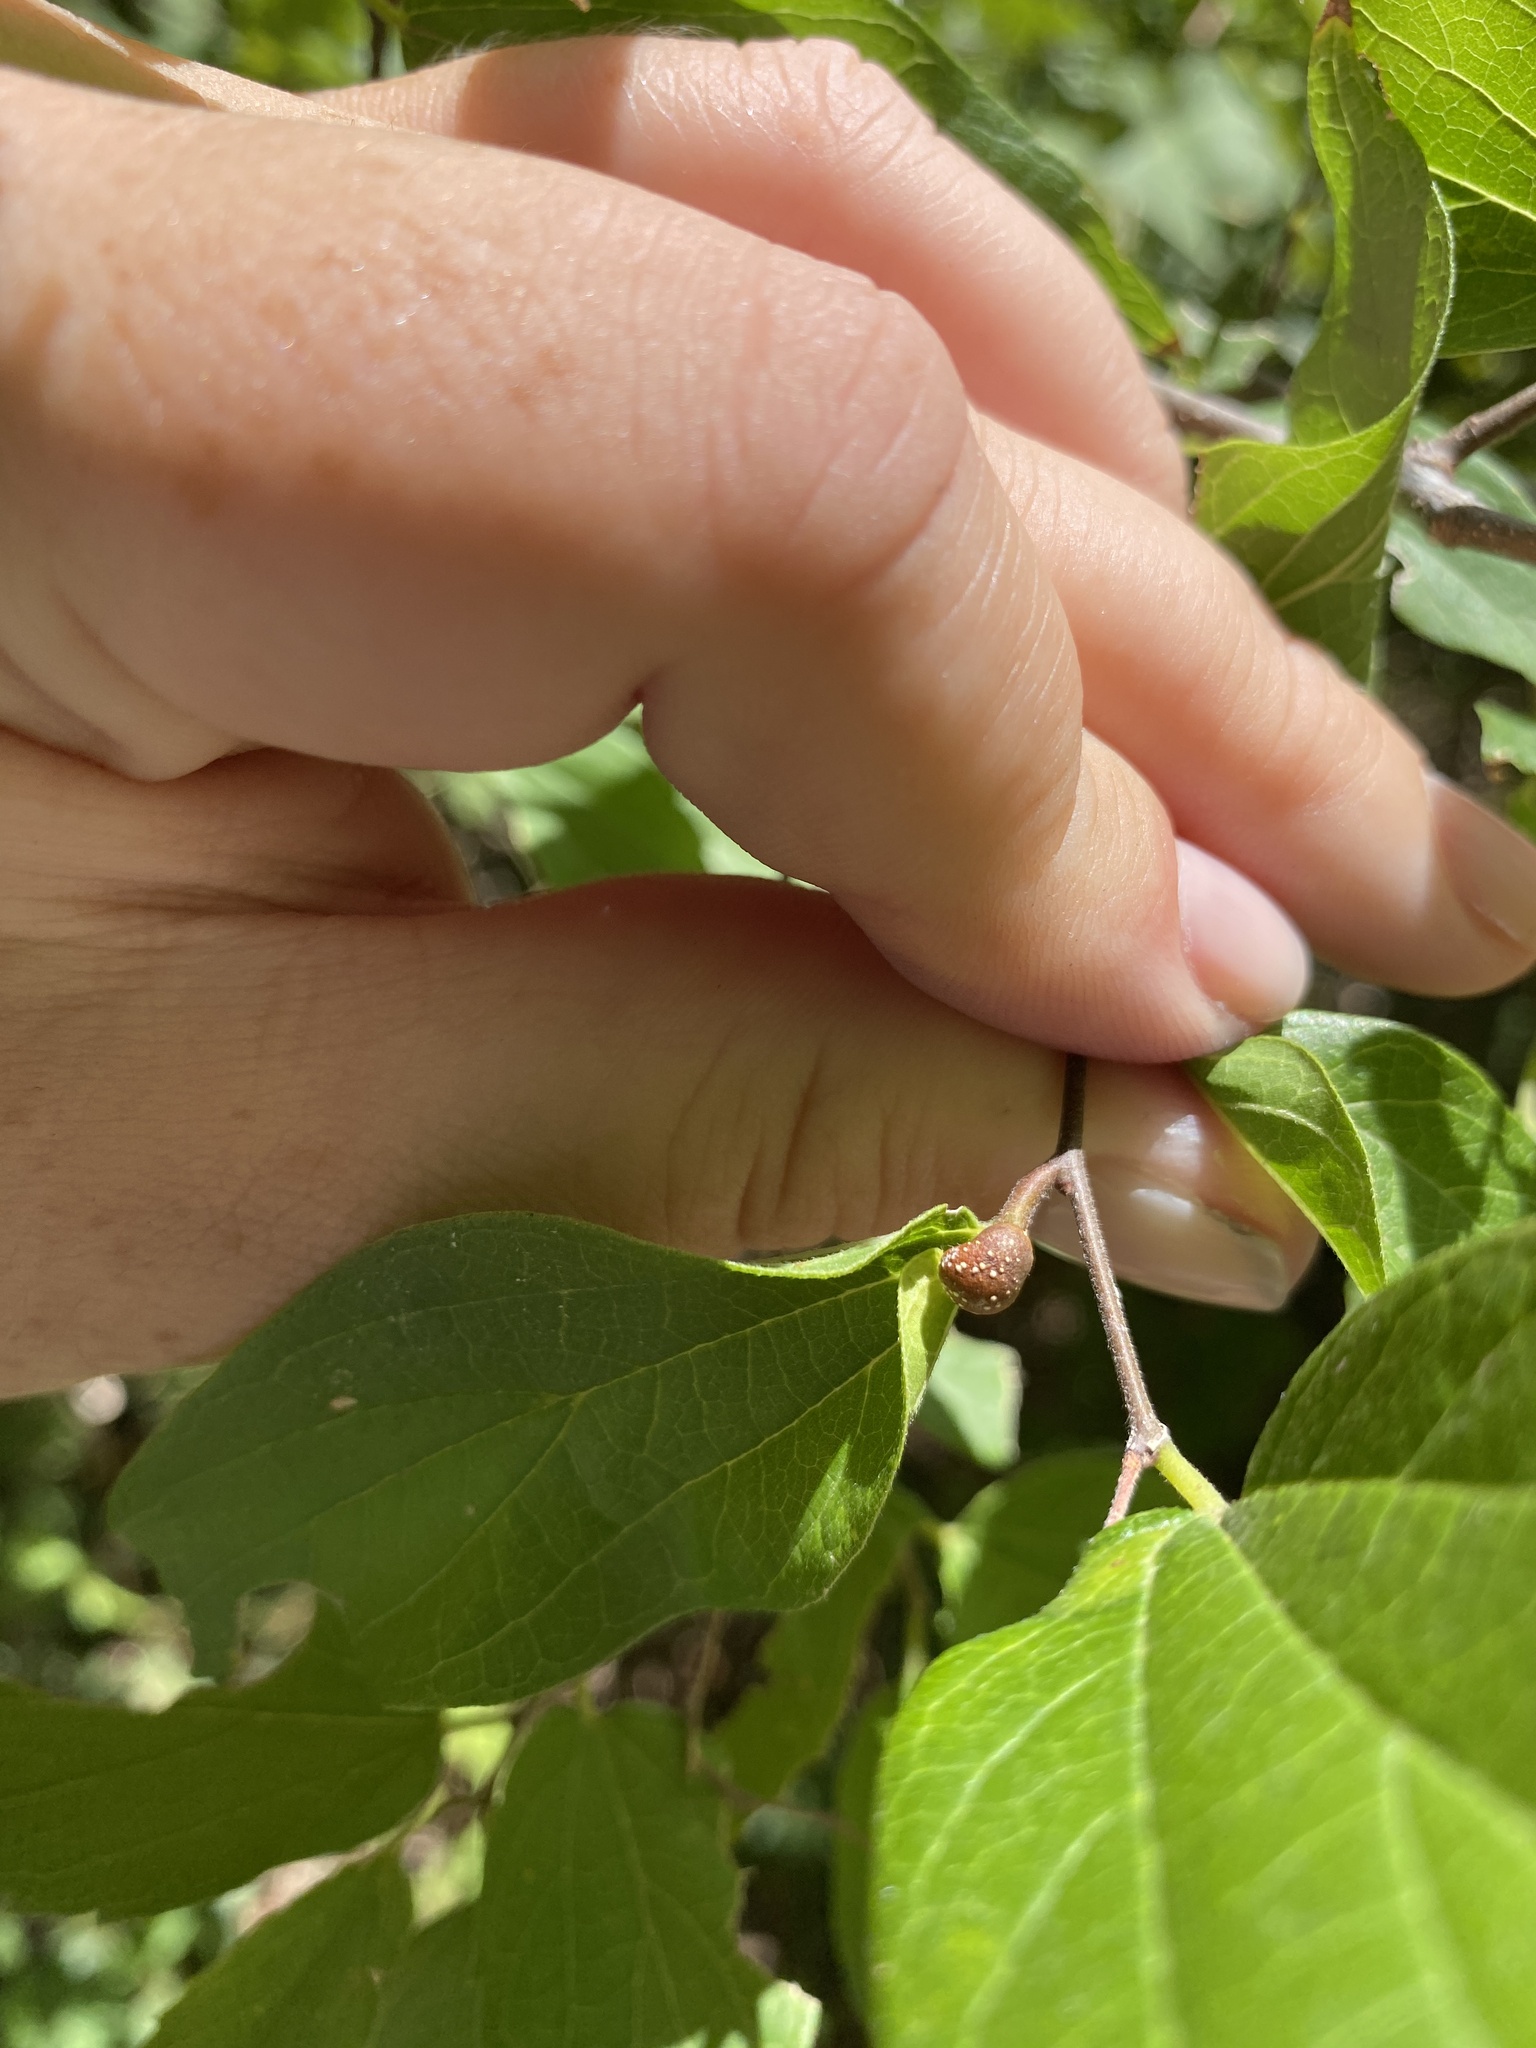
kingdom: Animalia
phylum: Arthropoda
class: Insecta
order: Hemiptera
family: Aphalaridae
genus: Pachypsylla
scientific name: Pachypsylla venusta
